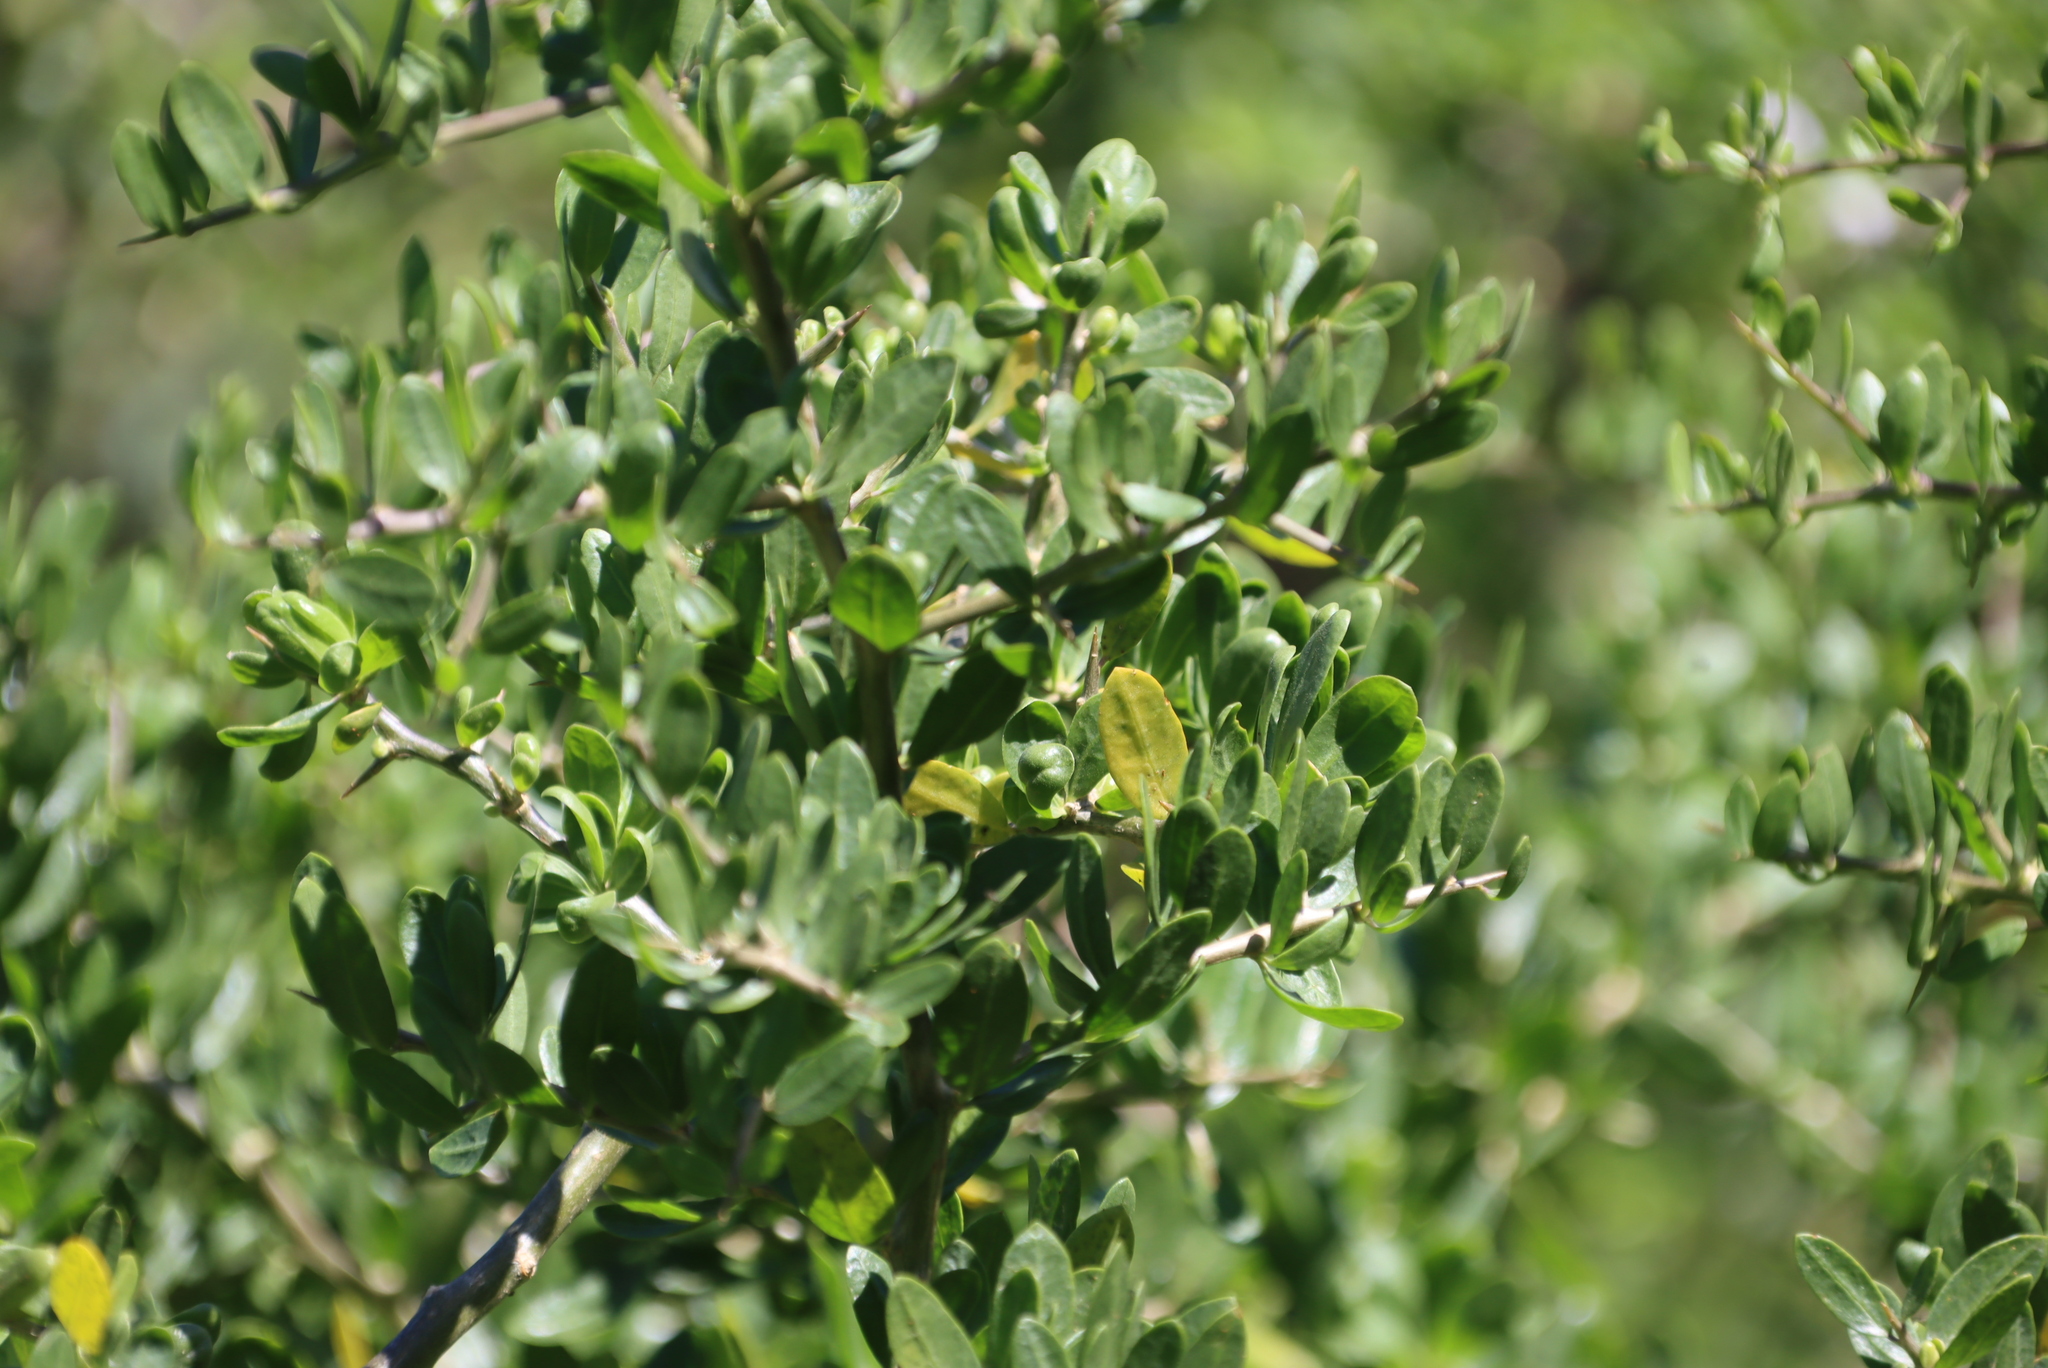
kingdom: Plantae
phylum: Tracheophyta
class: Magnoliopsida
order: Solanales
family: Solanaceae
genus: Lycium
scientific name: Lycium ferocissimum
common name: African boxthorn
